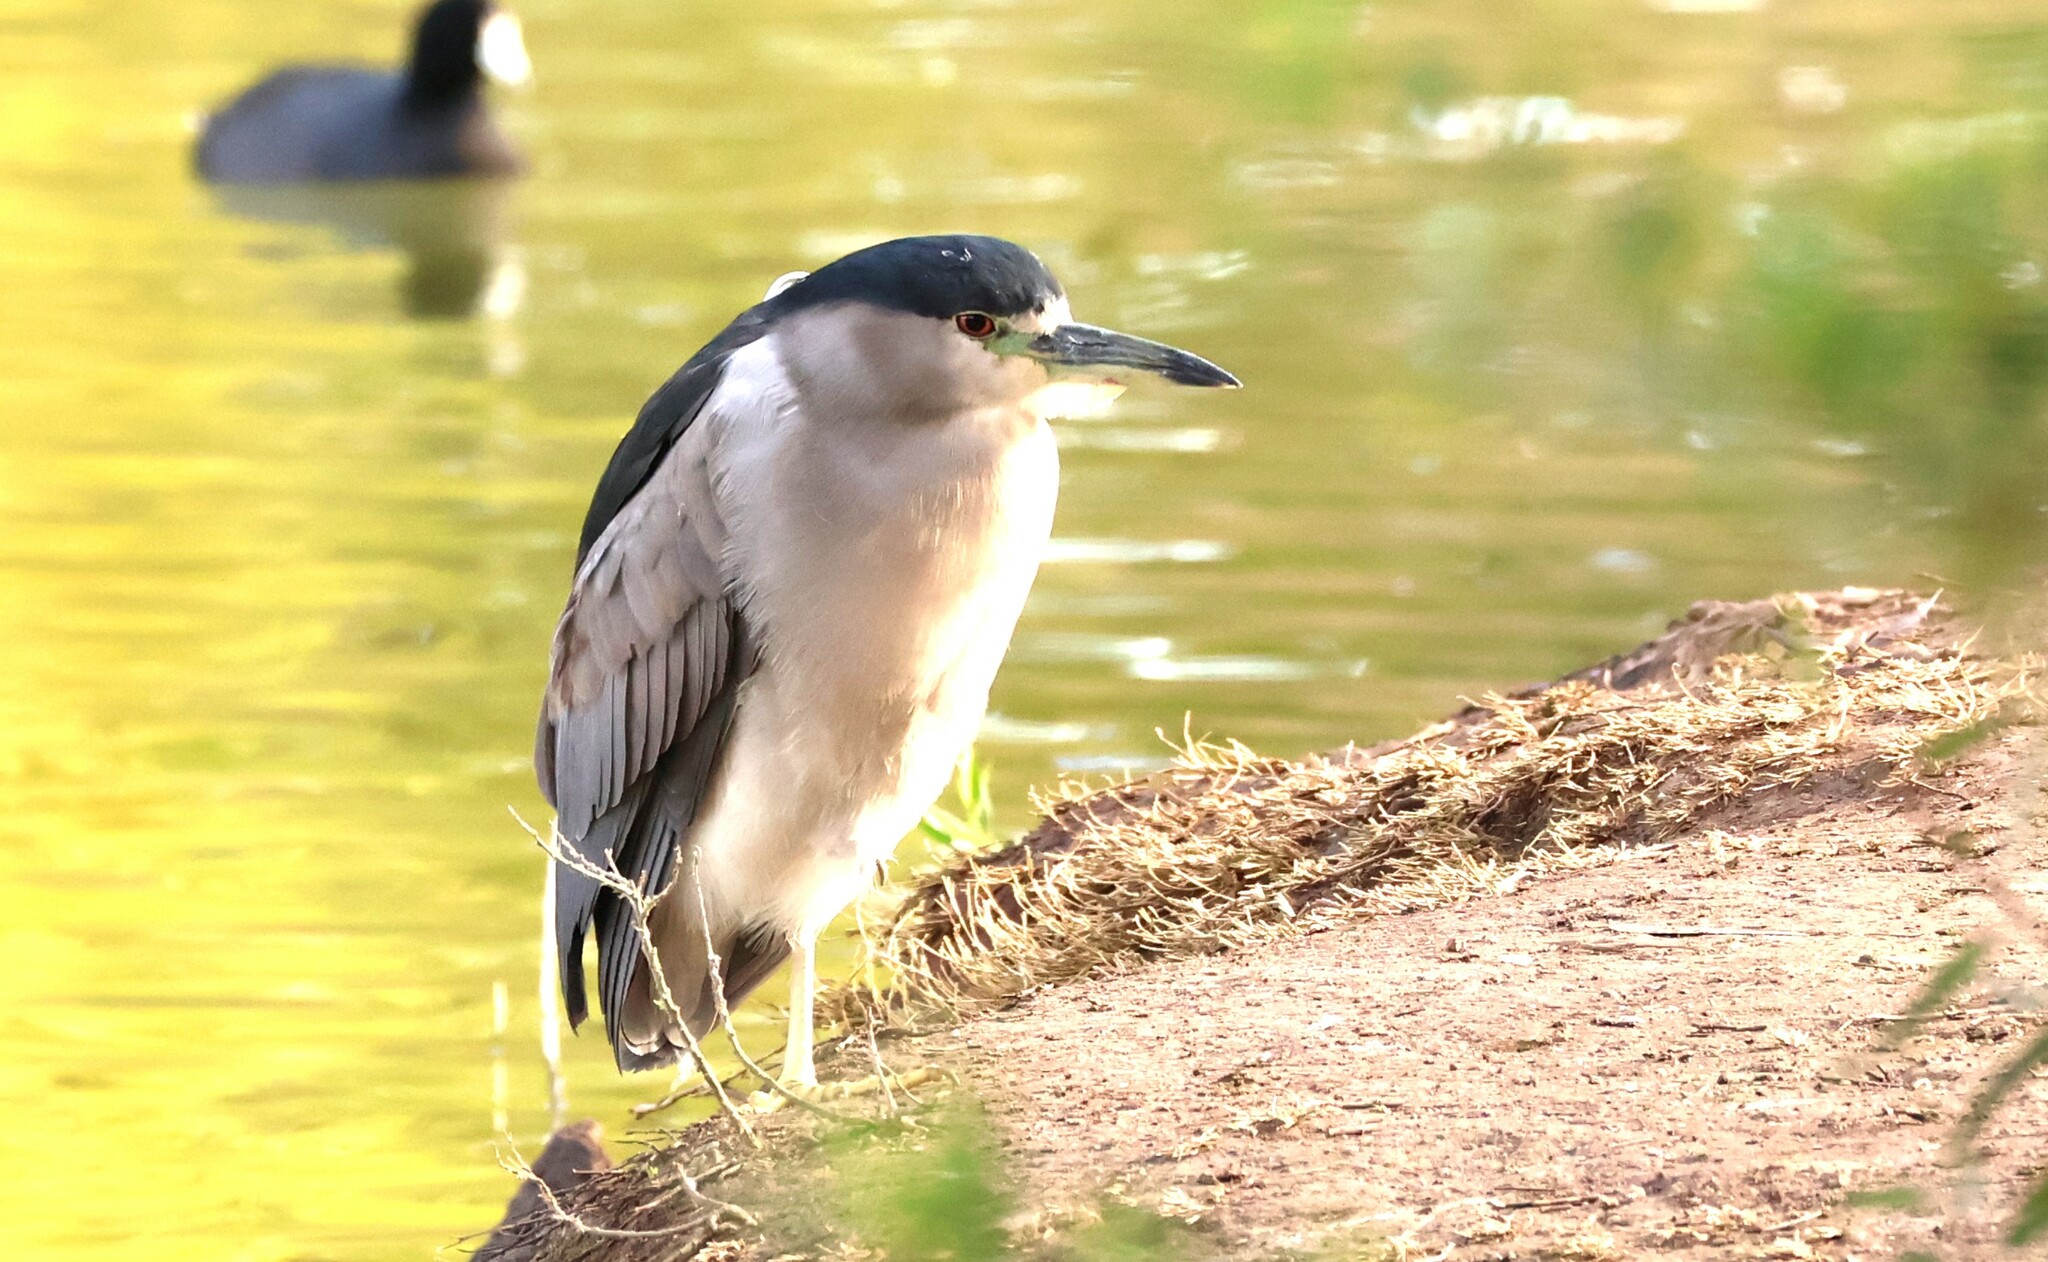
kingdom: Animalia
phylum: Chordata
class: Aves
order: Pelecaniformes
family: Ardeidae
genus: Nycticorax
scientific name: Nycticorax nycticorax
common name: Black-crowned night heron
